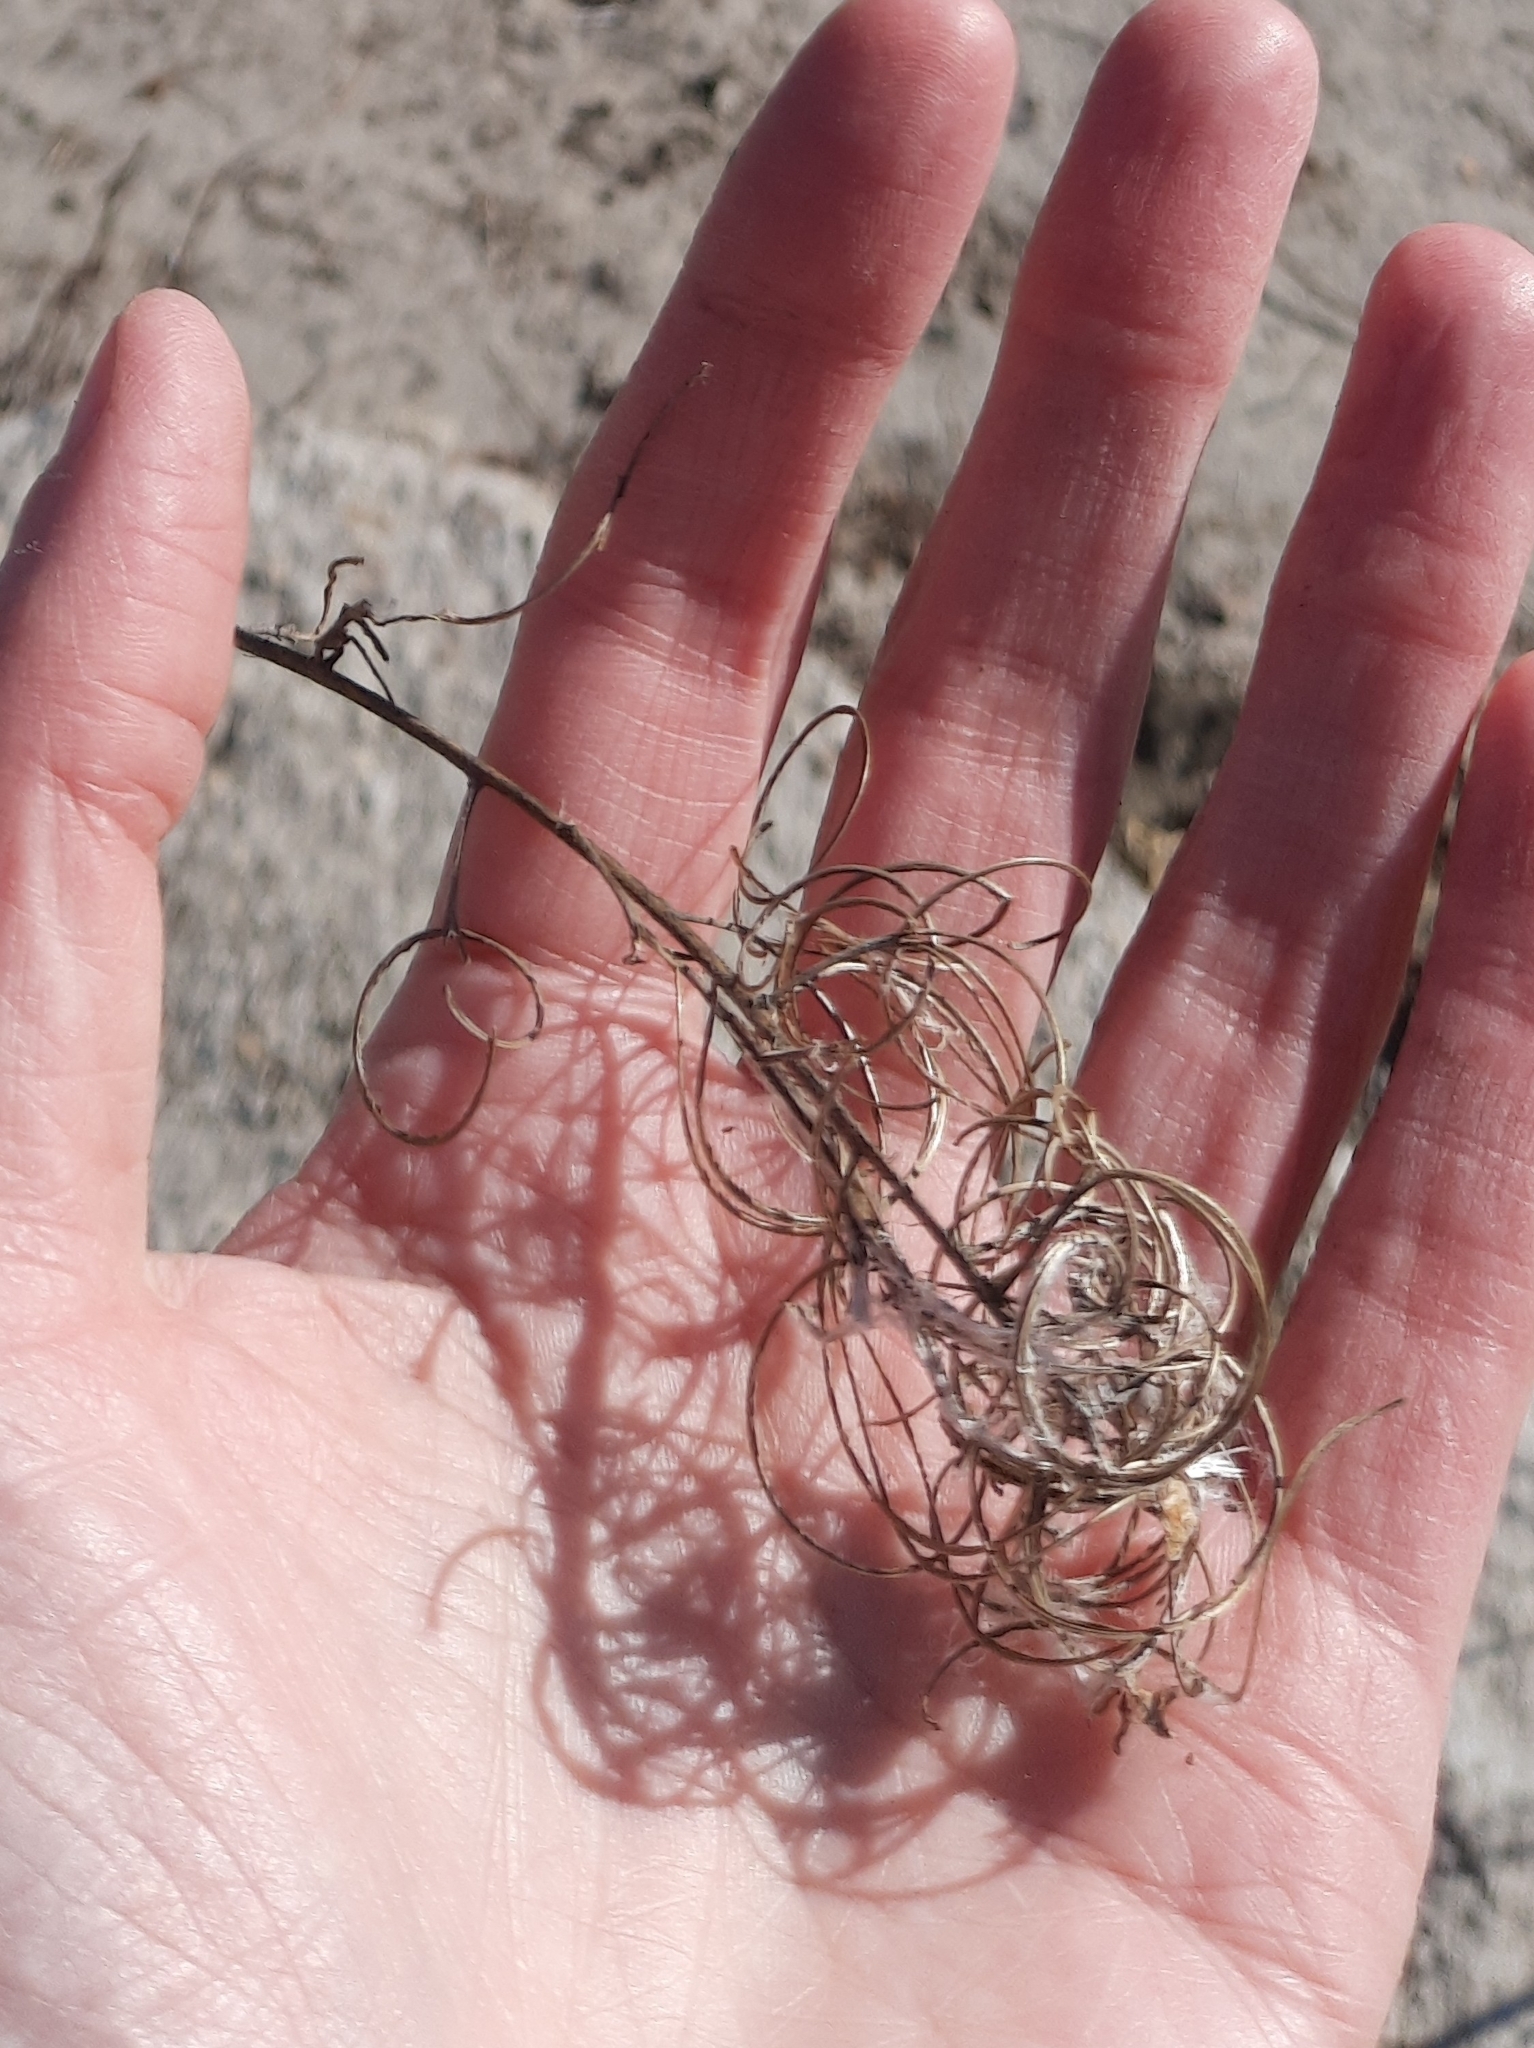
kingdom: Plantae
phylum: Tracheophyta
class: Magnoliopsida
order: Myrtales
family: Onagraceae
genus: Chamaenerion
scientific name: Chamaenerion angustifolium
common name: Fireweed
